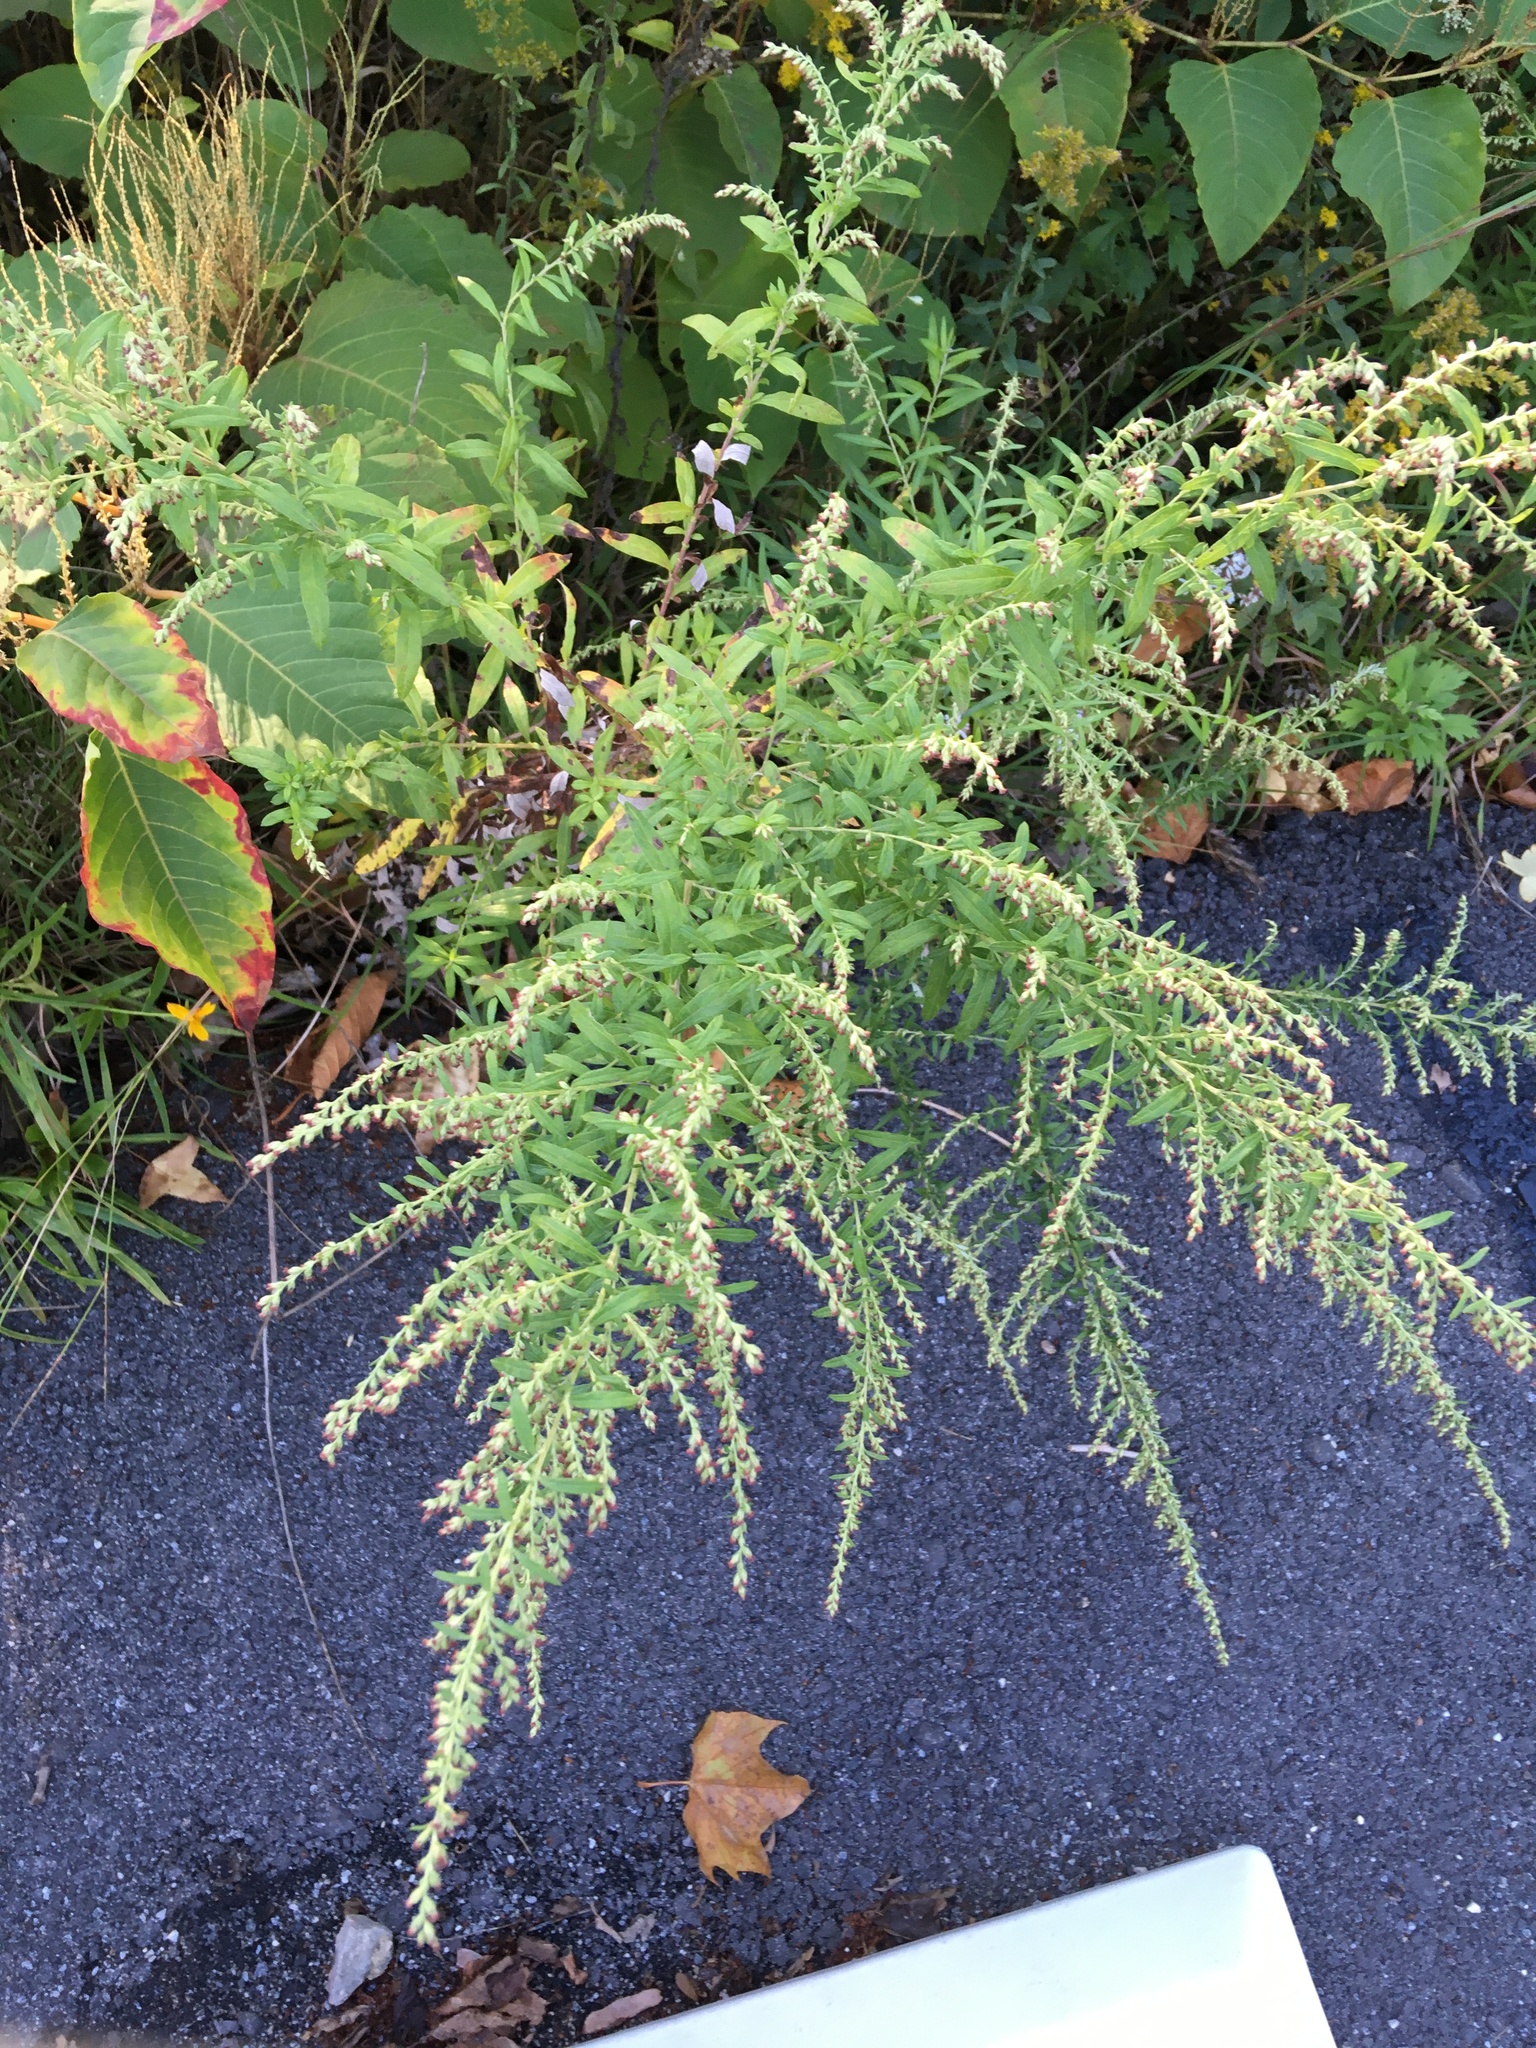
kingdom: Plantae
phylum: Tracheophyta
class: Magnoliopsida
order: Asterales
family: Asteraceae
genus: Artemisia
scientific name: Artemisia vulgaris
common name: Mugwort
